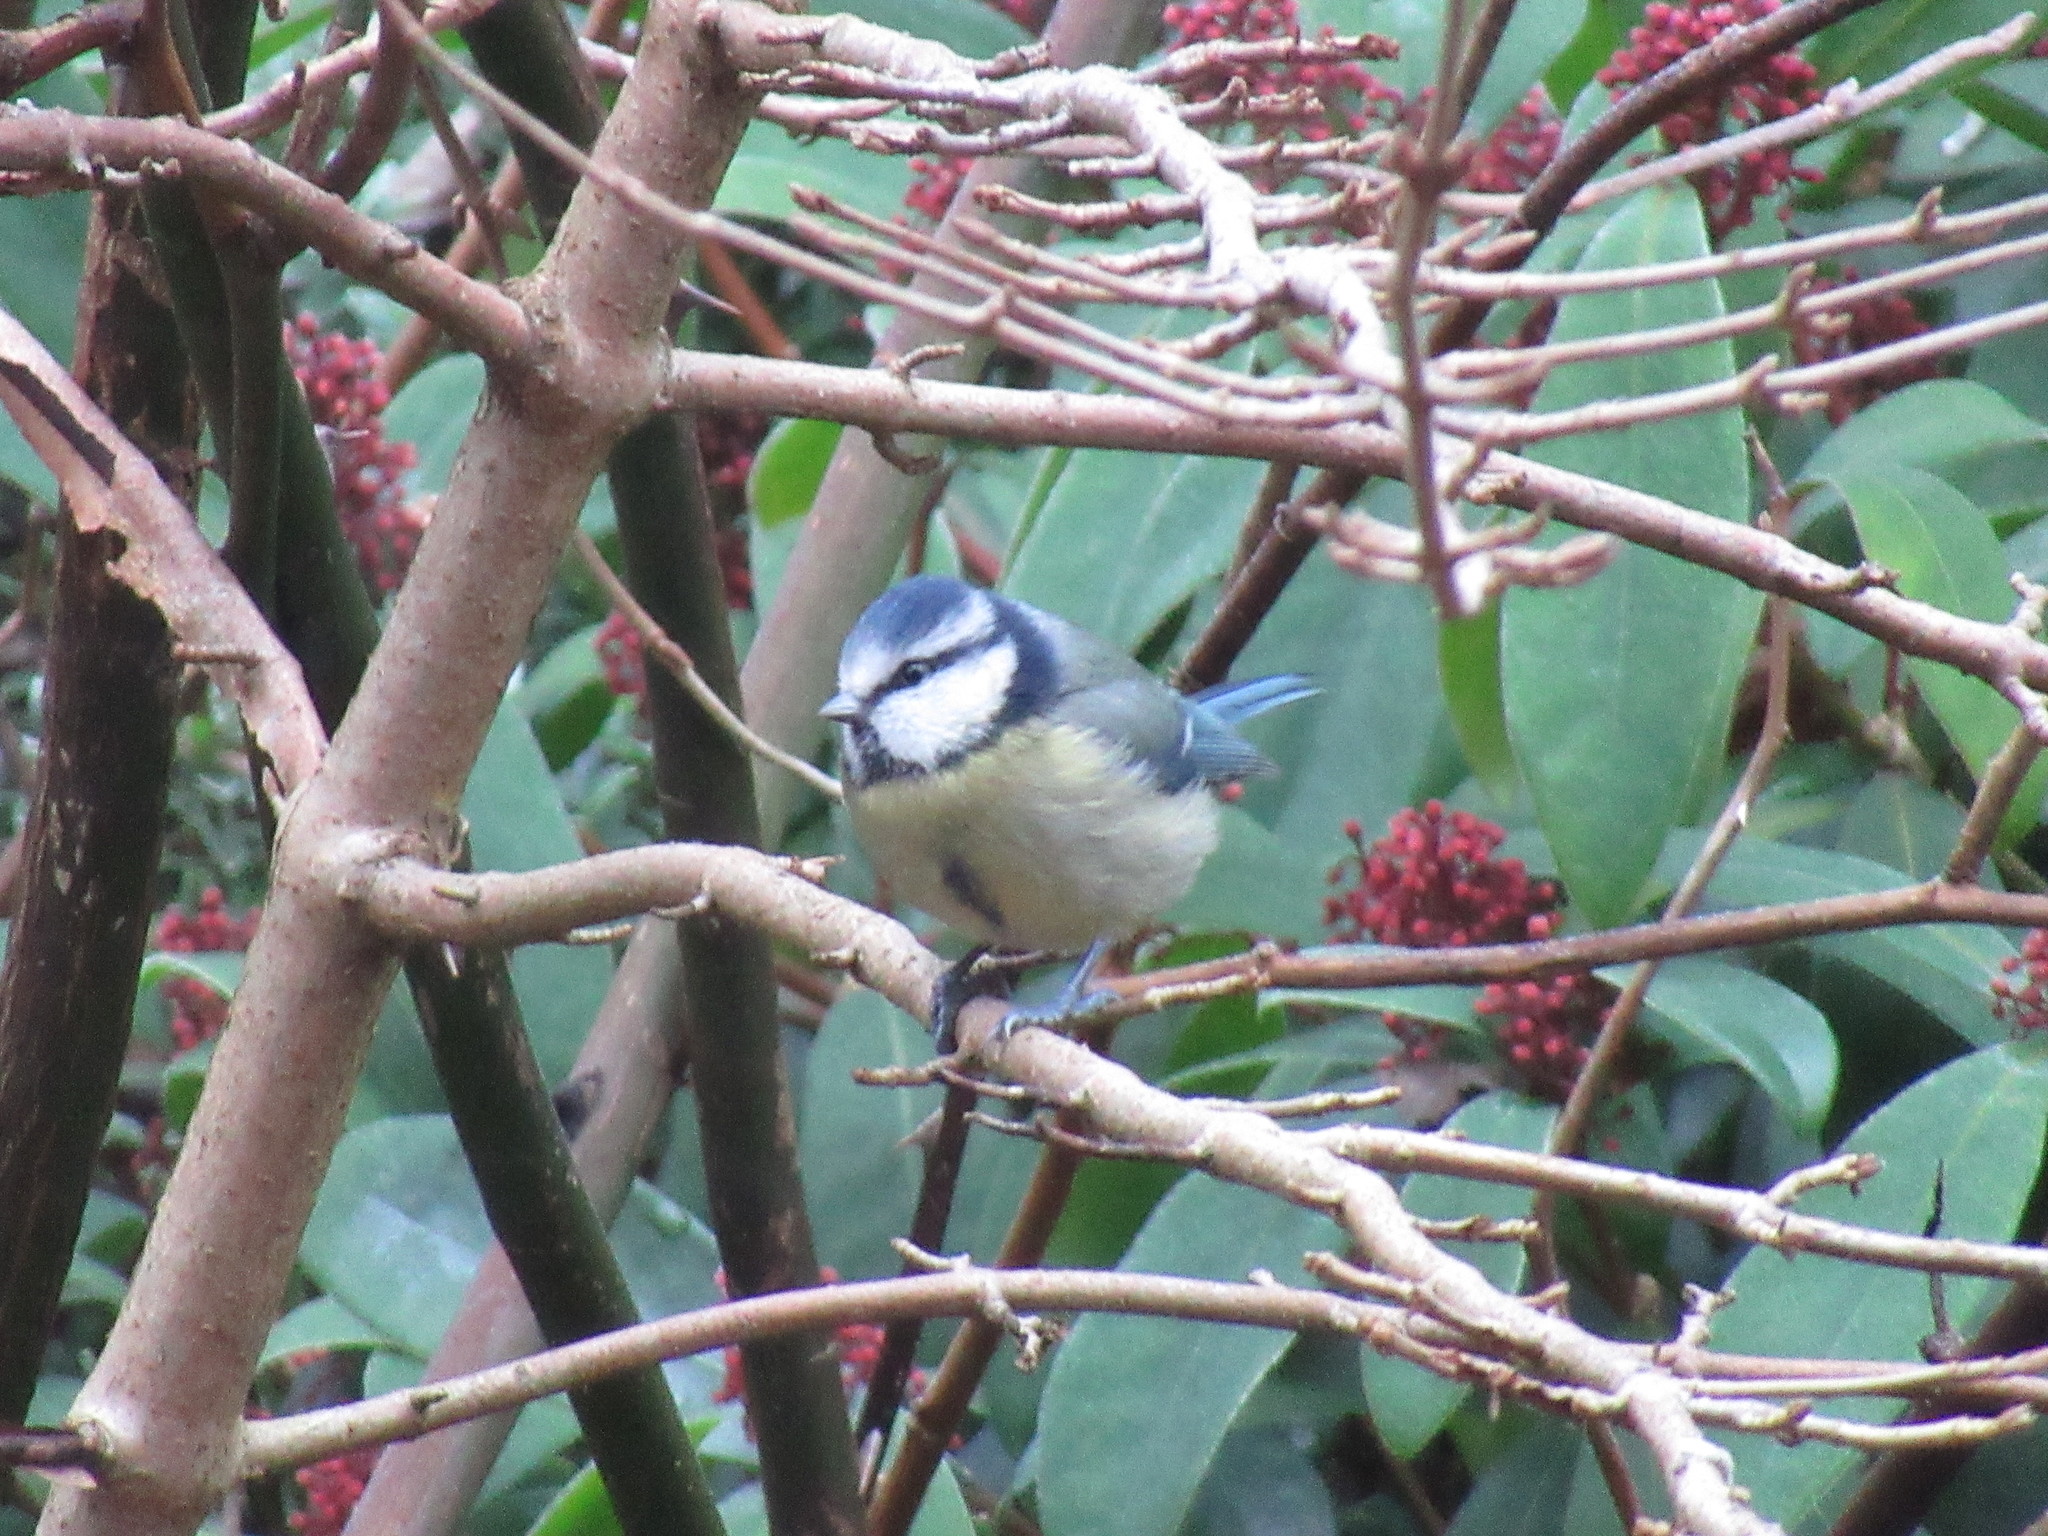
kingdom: Animalia
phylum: Chordata
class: Aves
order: Passeriformes
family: Paridae
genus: Cyanistes
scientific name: Cyanistes caeruleus
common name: Eurasian blue tit
